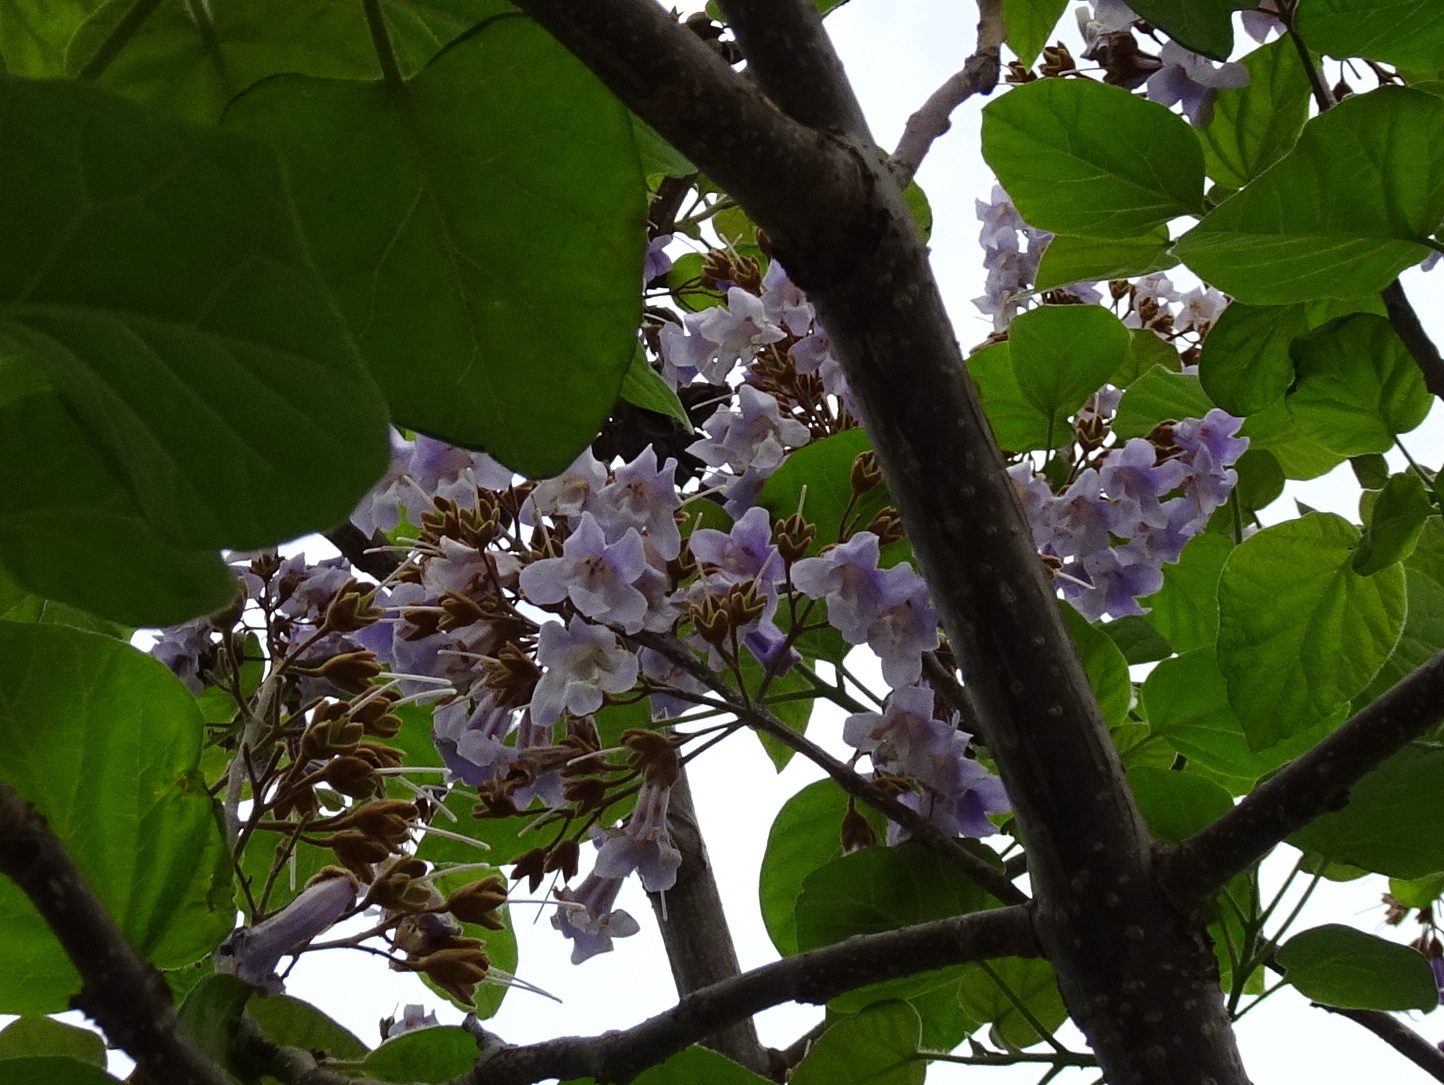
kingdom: Plantae
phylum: Tracheophyta
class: Magnoliopsida
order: Lamiales
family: Paulowniaceae
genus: Paulownia
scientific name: Paulownia tomentosa
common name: Foxglove-tree
